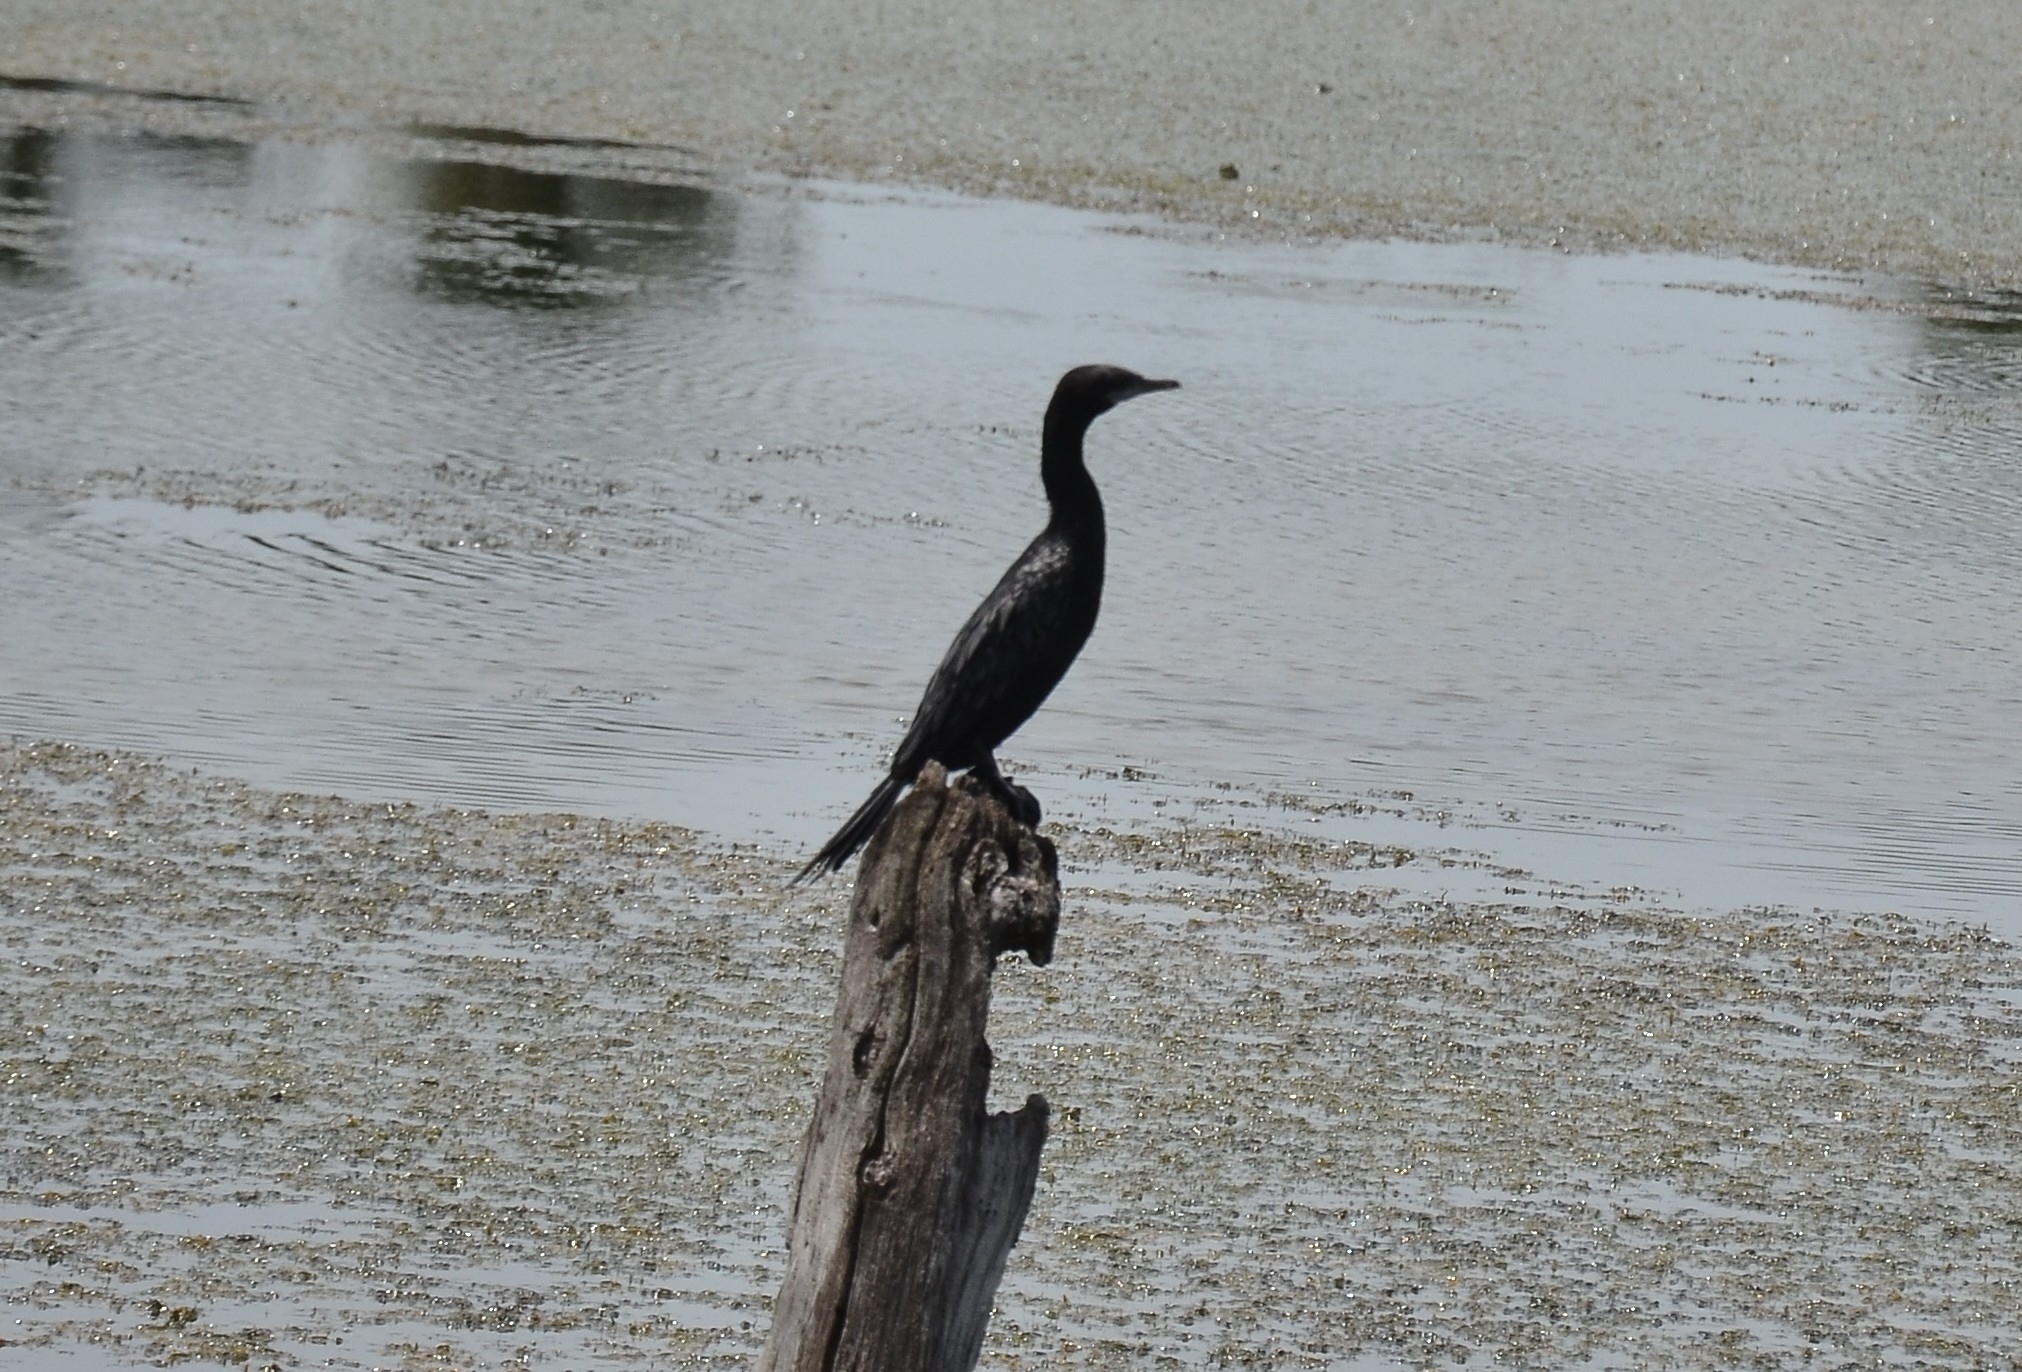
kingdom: Animalia
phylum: Chordata
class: Aves
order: Suliformes
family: Phalacrocoracidae
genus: Microcarbo
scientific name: Microcarbo niger
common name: Little cormorant
